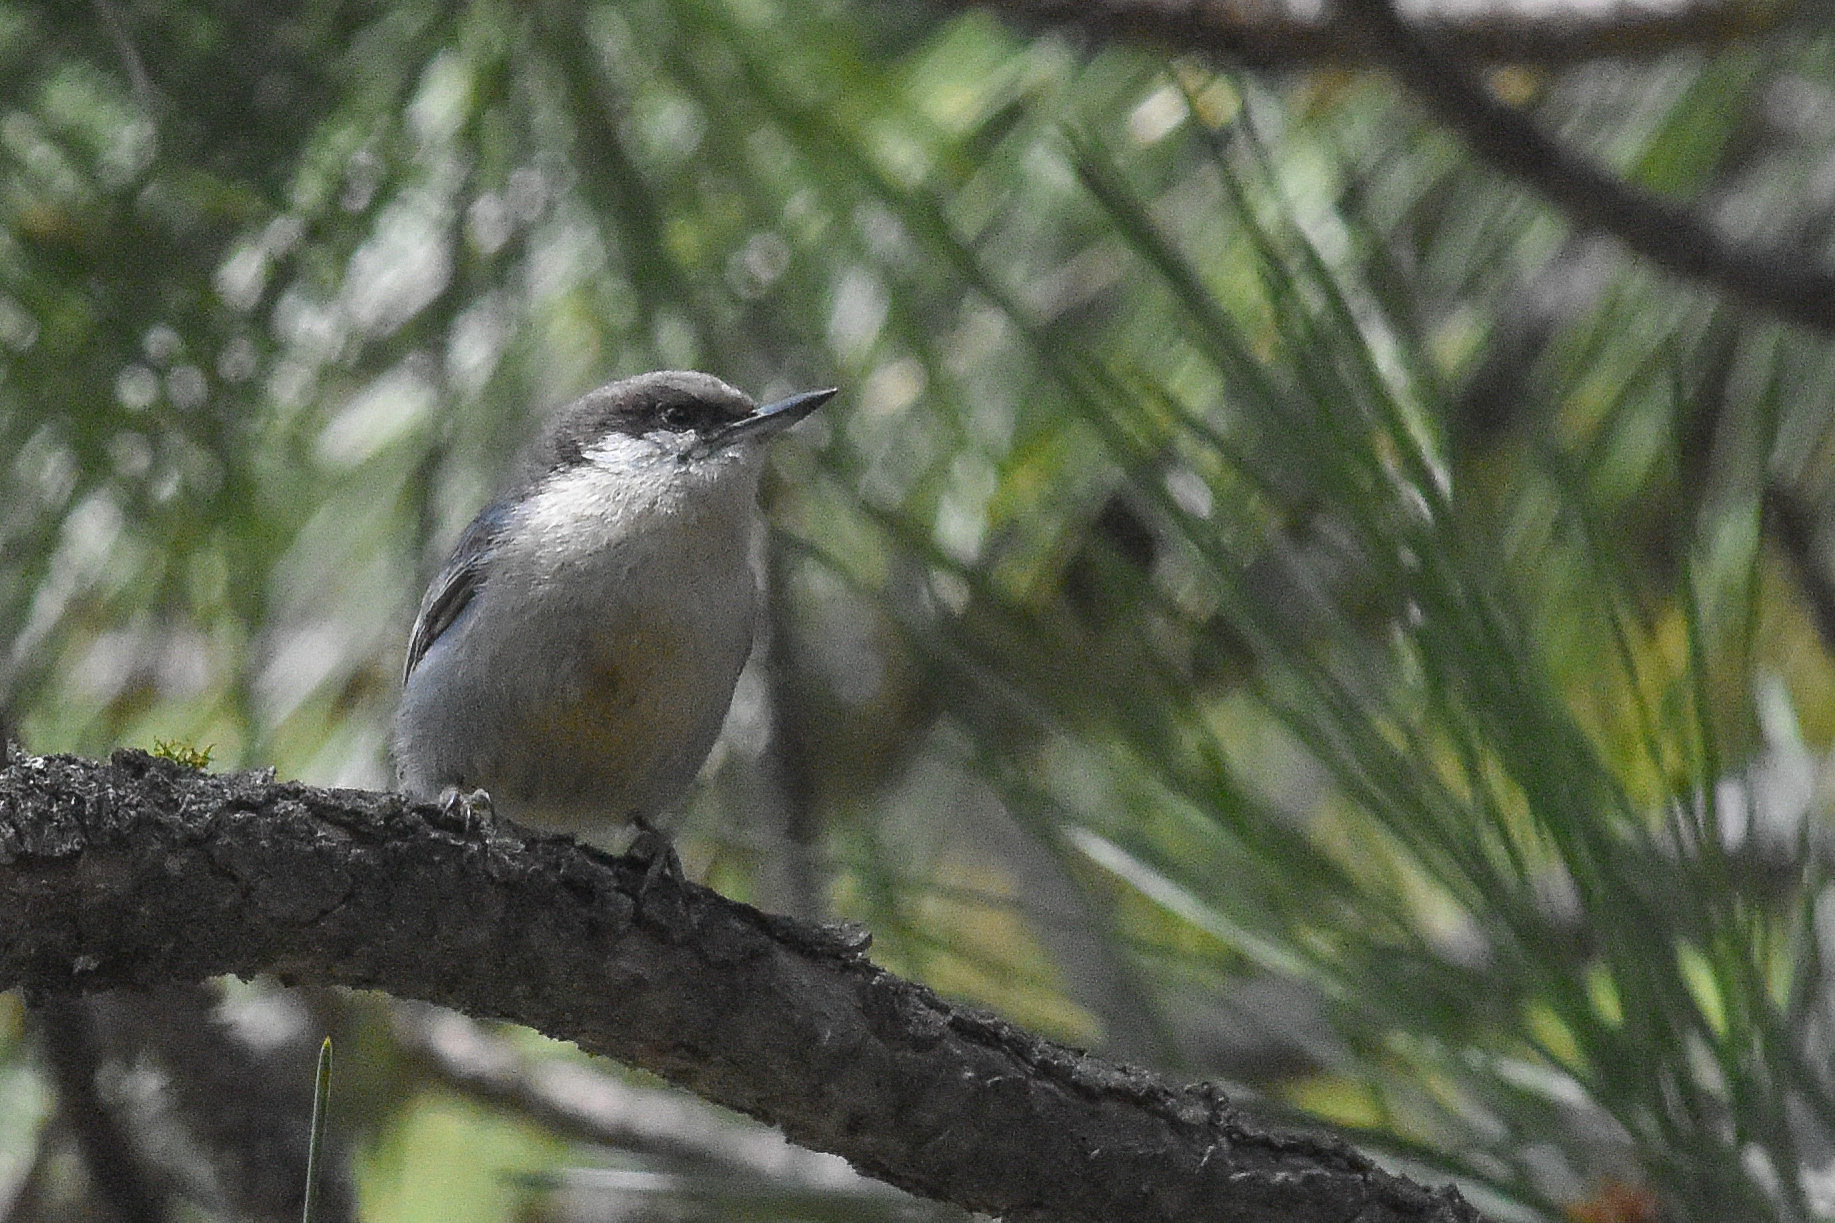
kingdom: Animalia
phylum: Chordata
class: Aves
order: Passeriformes
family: Sittidae
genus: Sitta
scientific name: Sitta pygmaea
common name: Pygmy nuthatch
